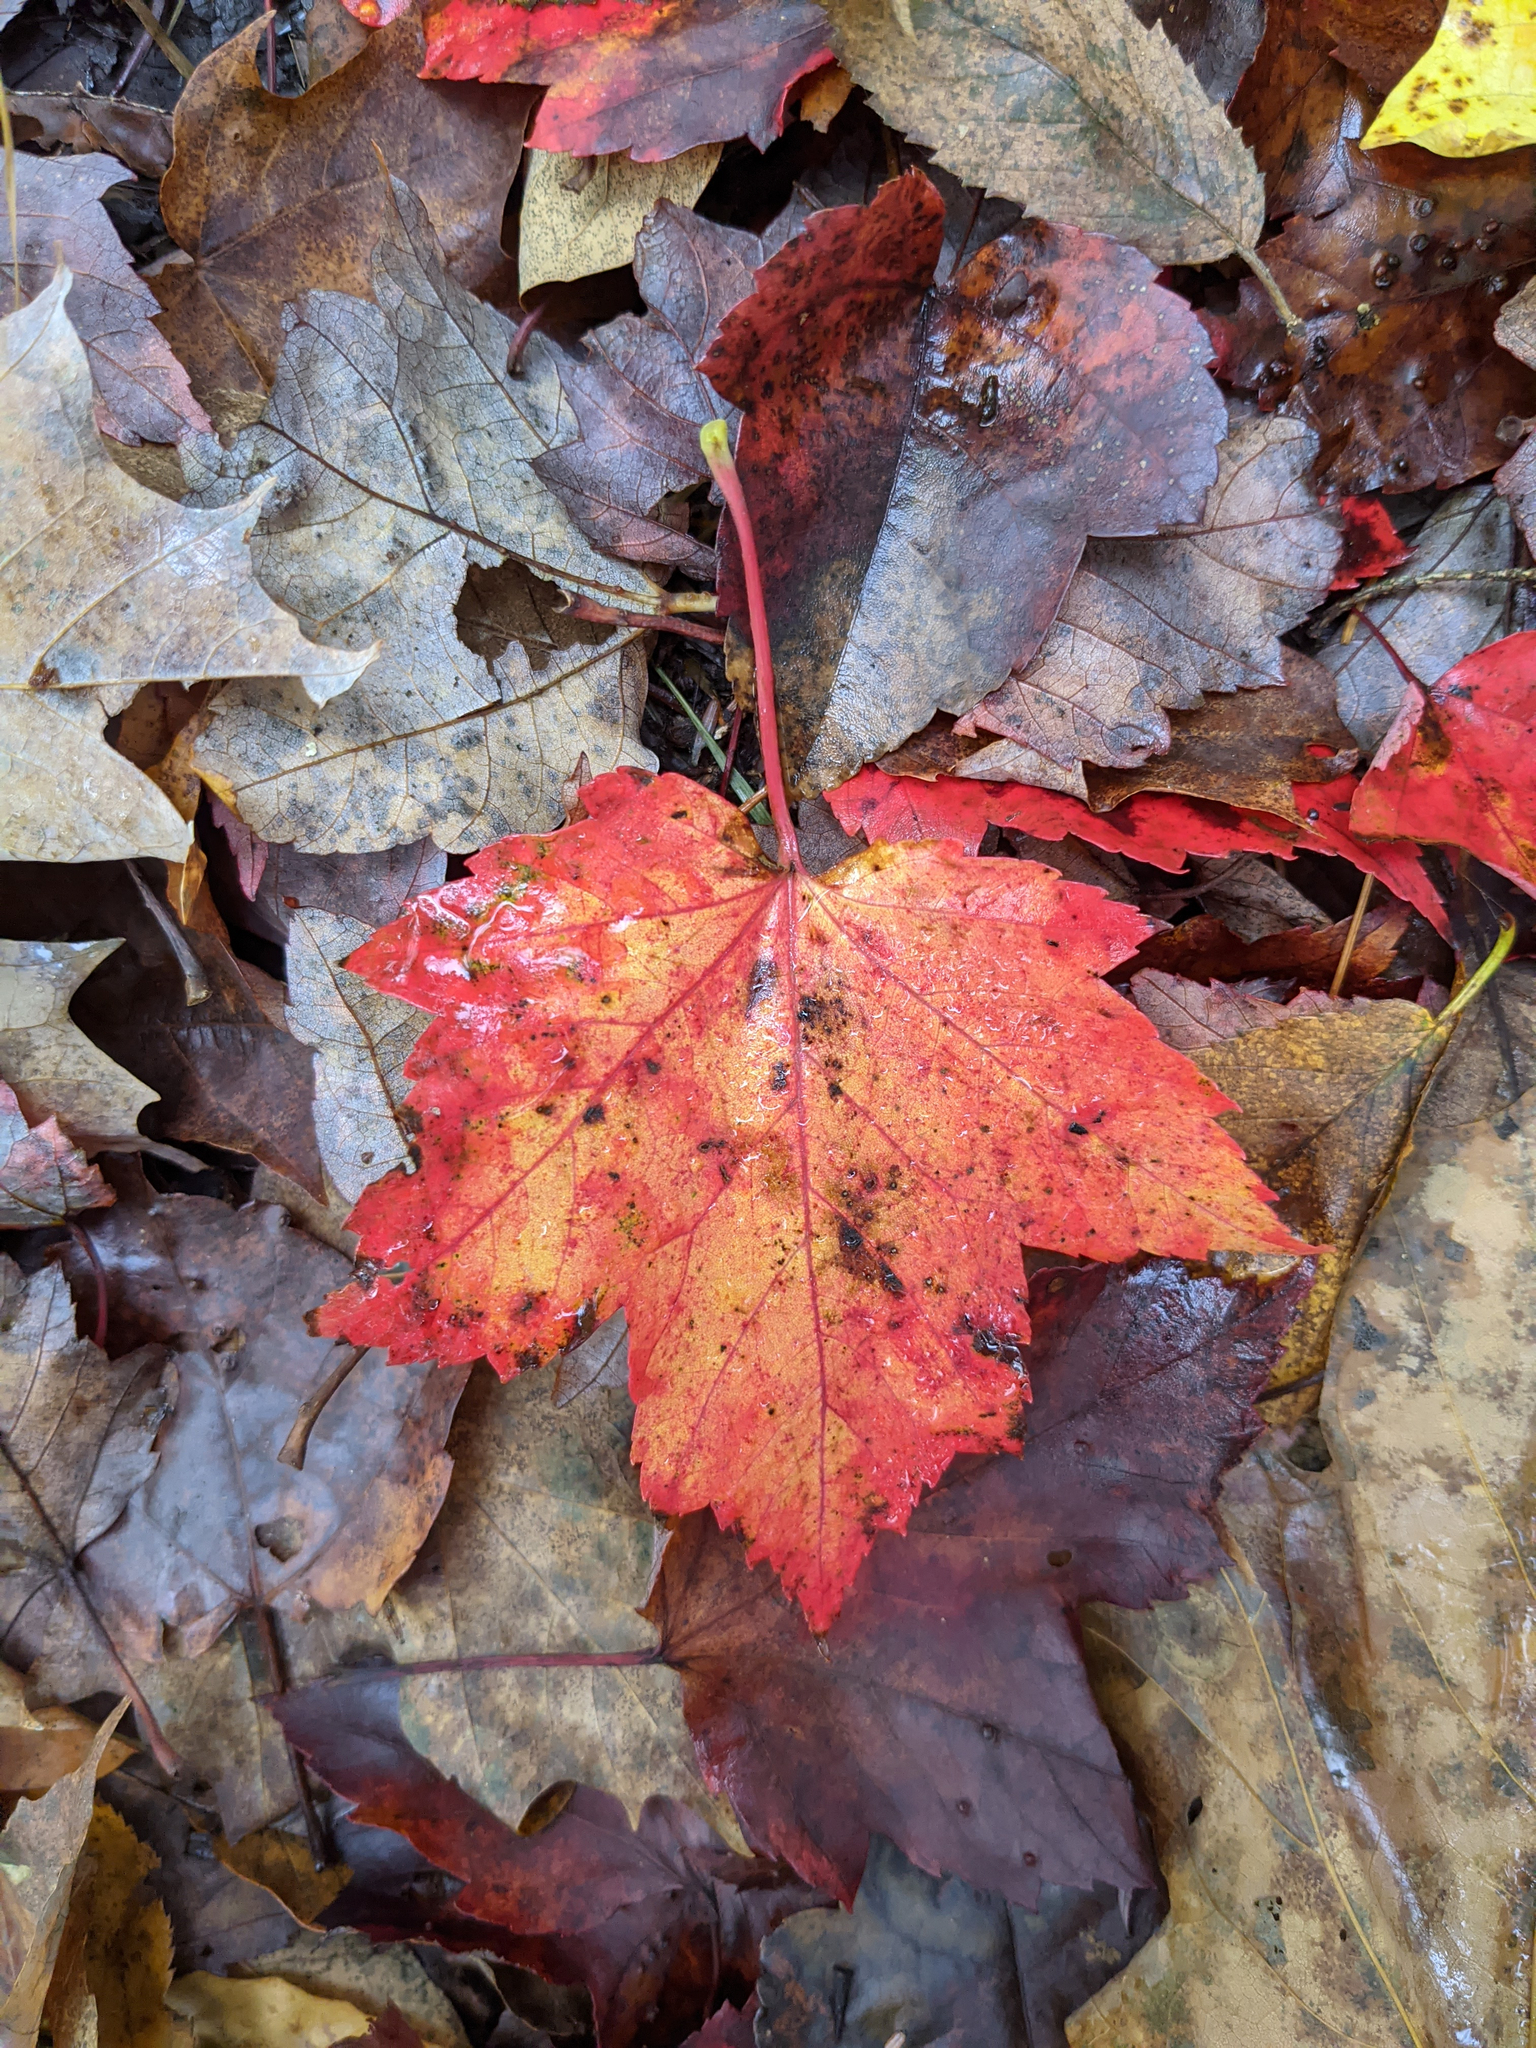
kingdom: Plantae
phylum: Tracheophyta
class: Magnoliopsida
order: Sapindales
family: Sapindaceae
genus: Acer
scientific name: Acer rubrum
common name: Red maple
